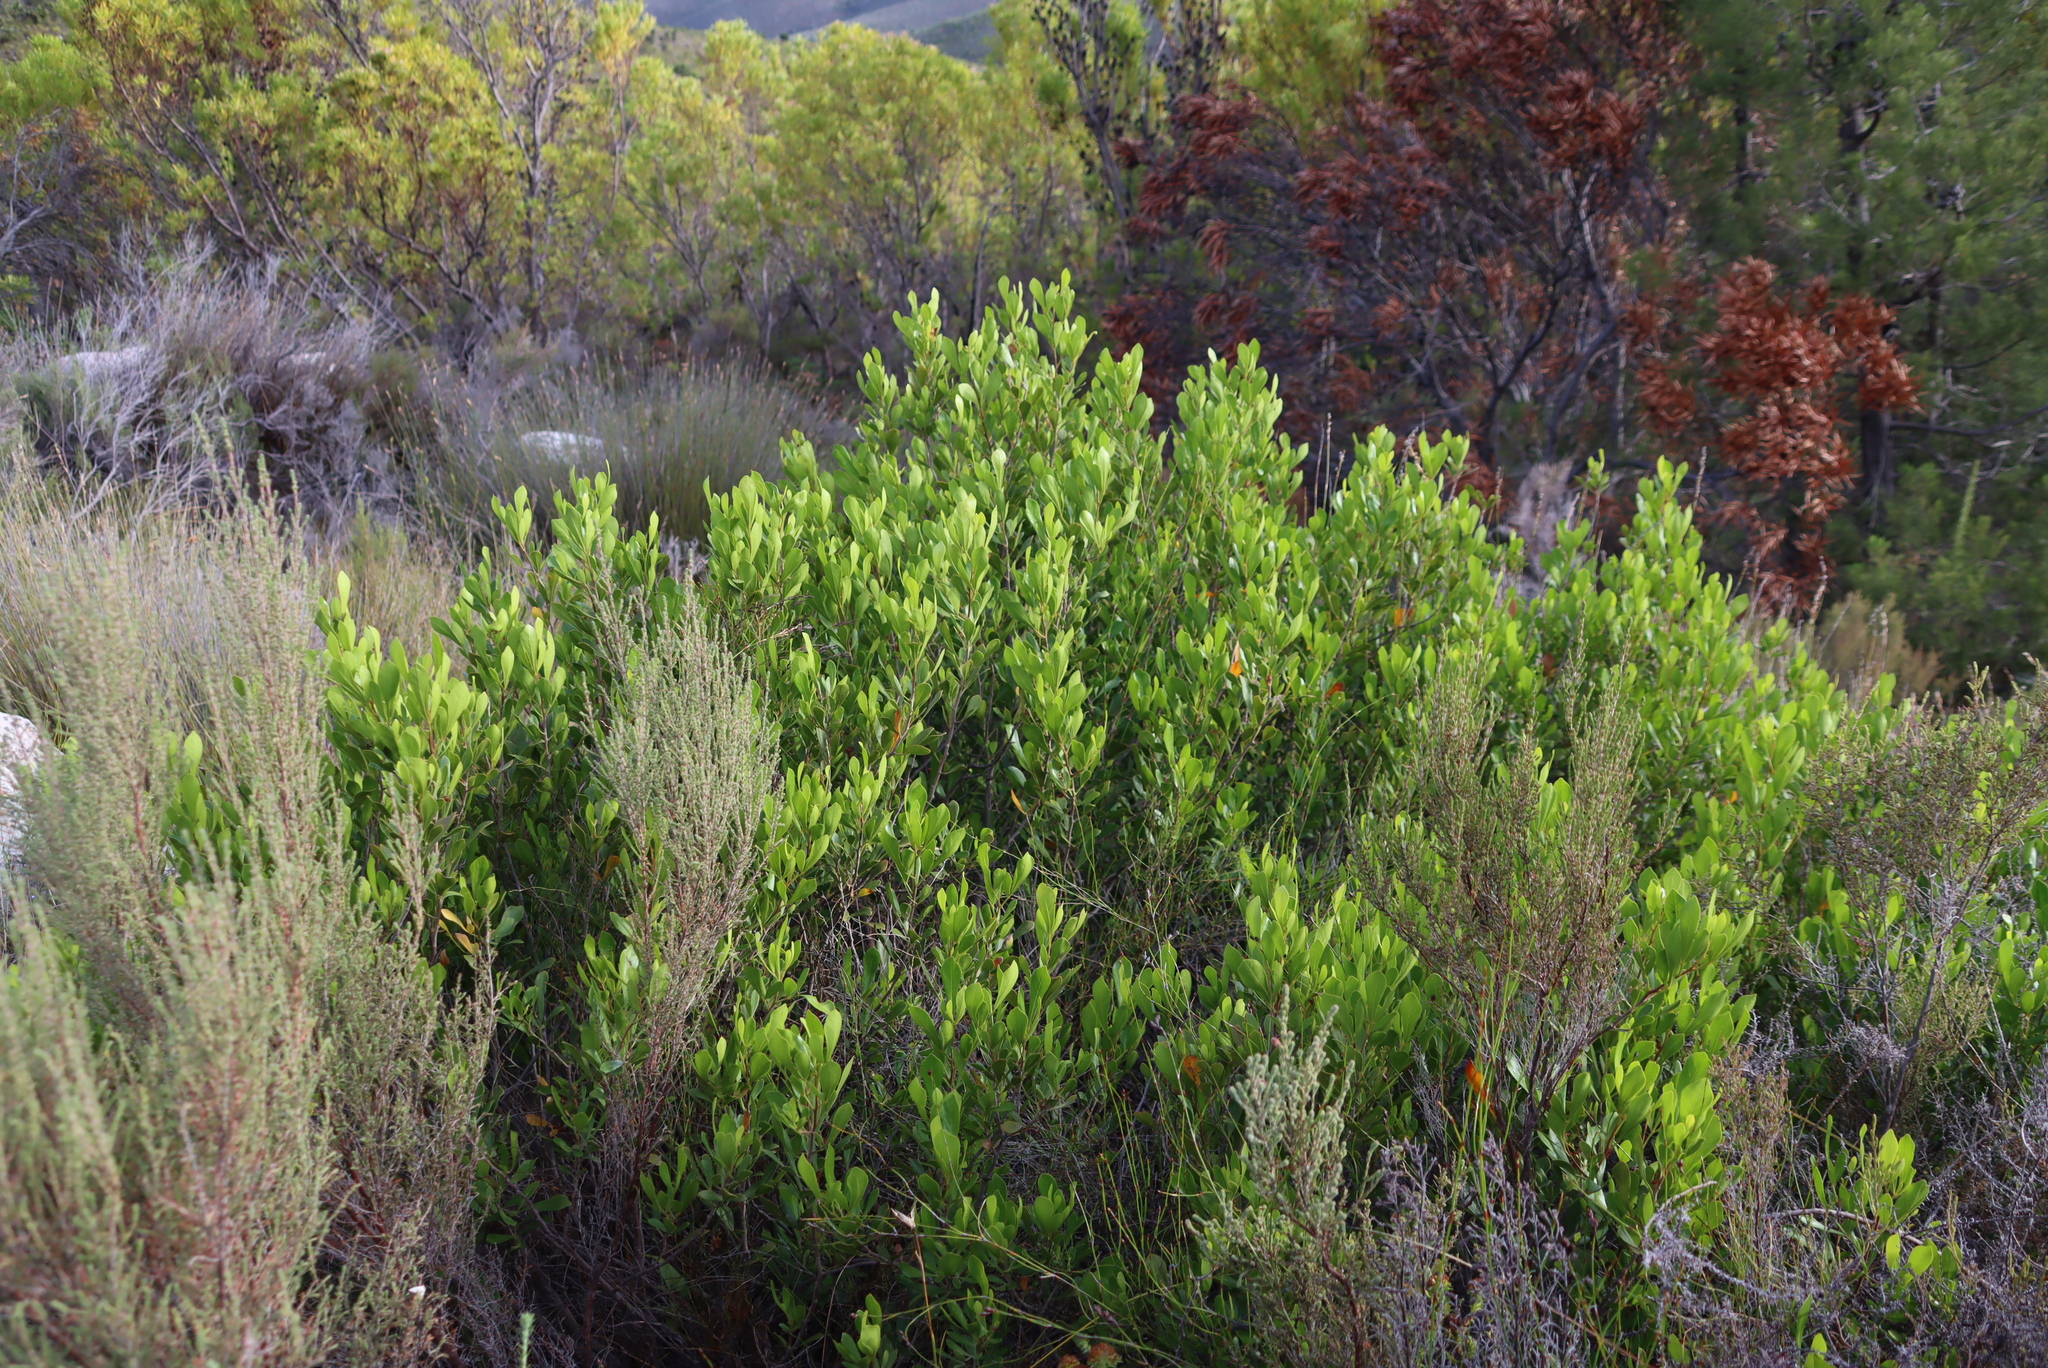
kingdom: Plantae
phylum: Tracheophyta
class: Magnoliopsida
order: Sapindales
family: Anacardiaceae
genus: Searsia
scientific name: Searsia lucida
